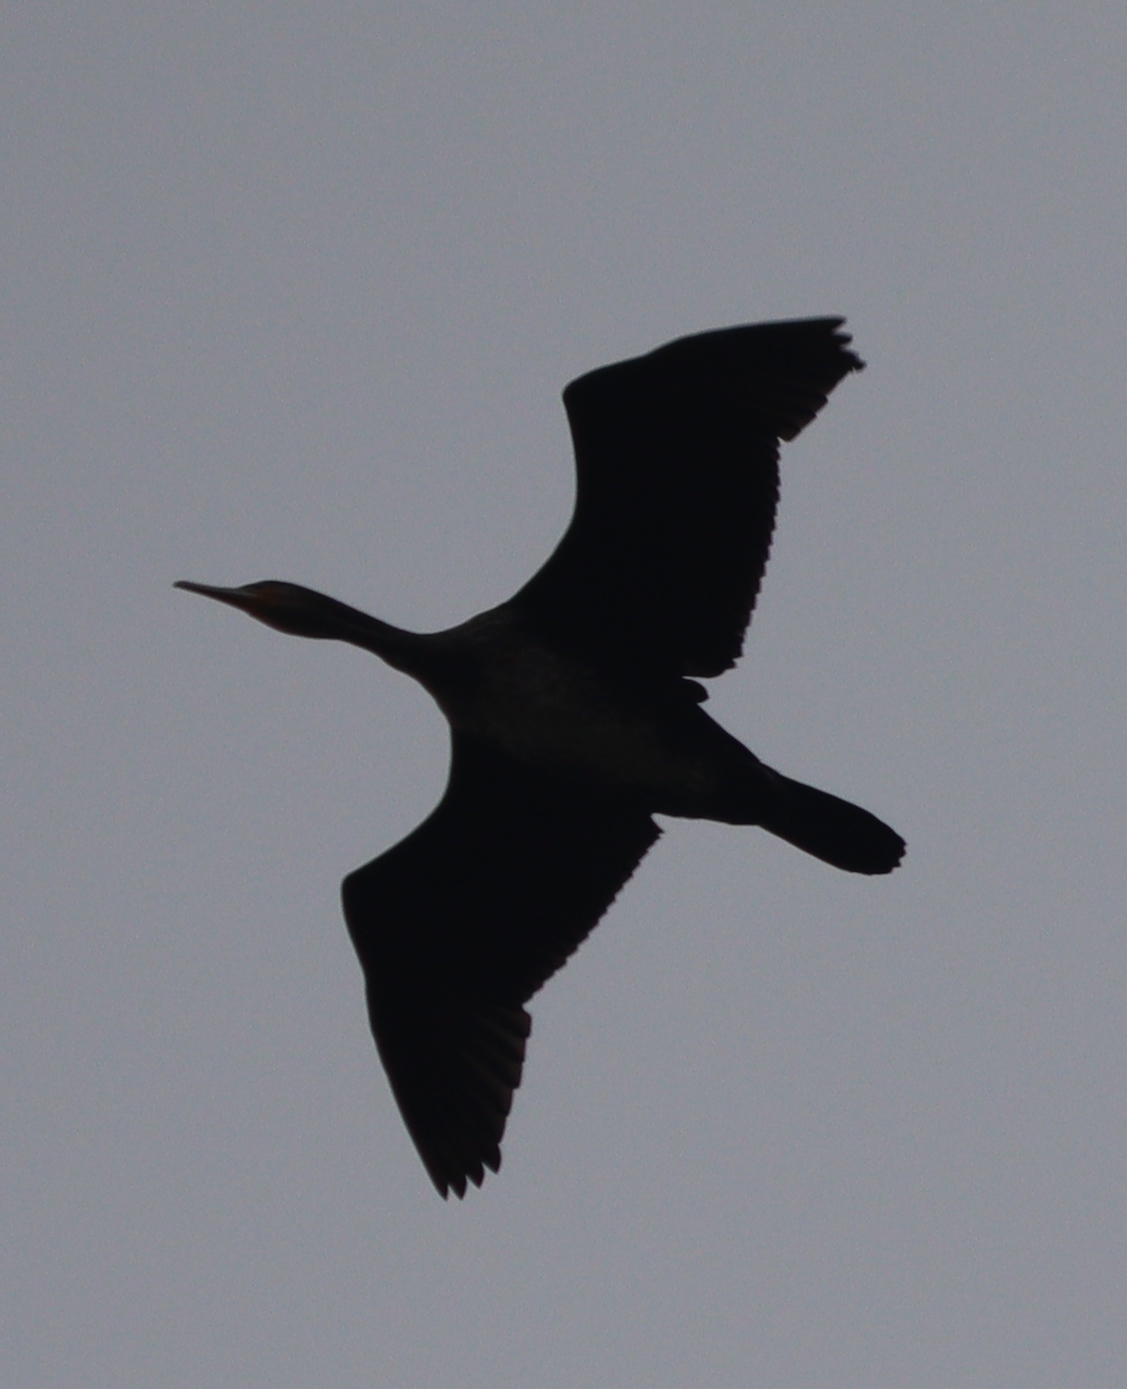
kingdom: Animalia
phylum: Chordata
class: Aves
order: Suliformes
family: Phalacrocoracidae
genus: Phalacrocorax
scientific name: Phalacrocorax carbo
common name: Great cormorant
